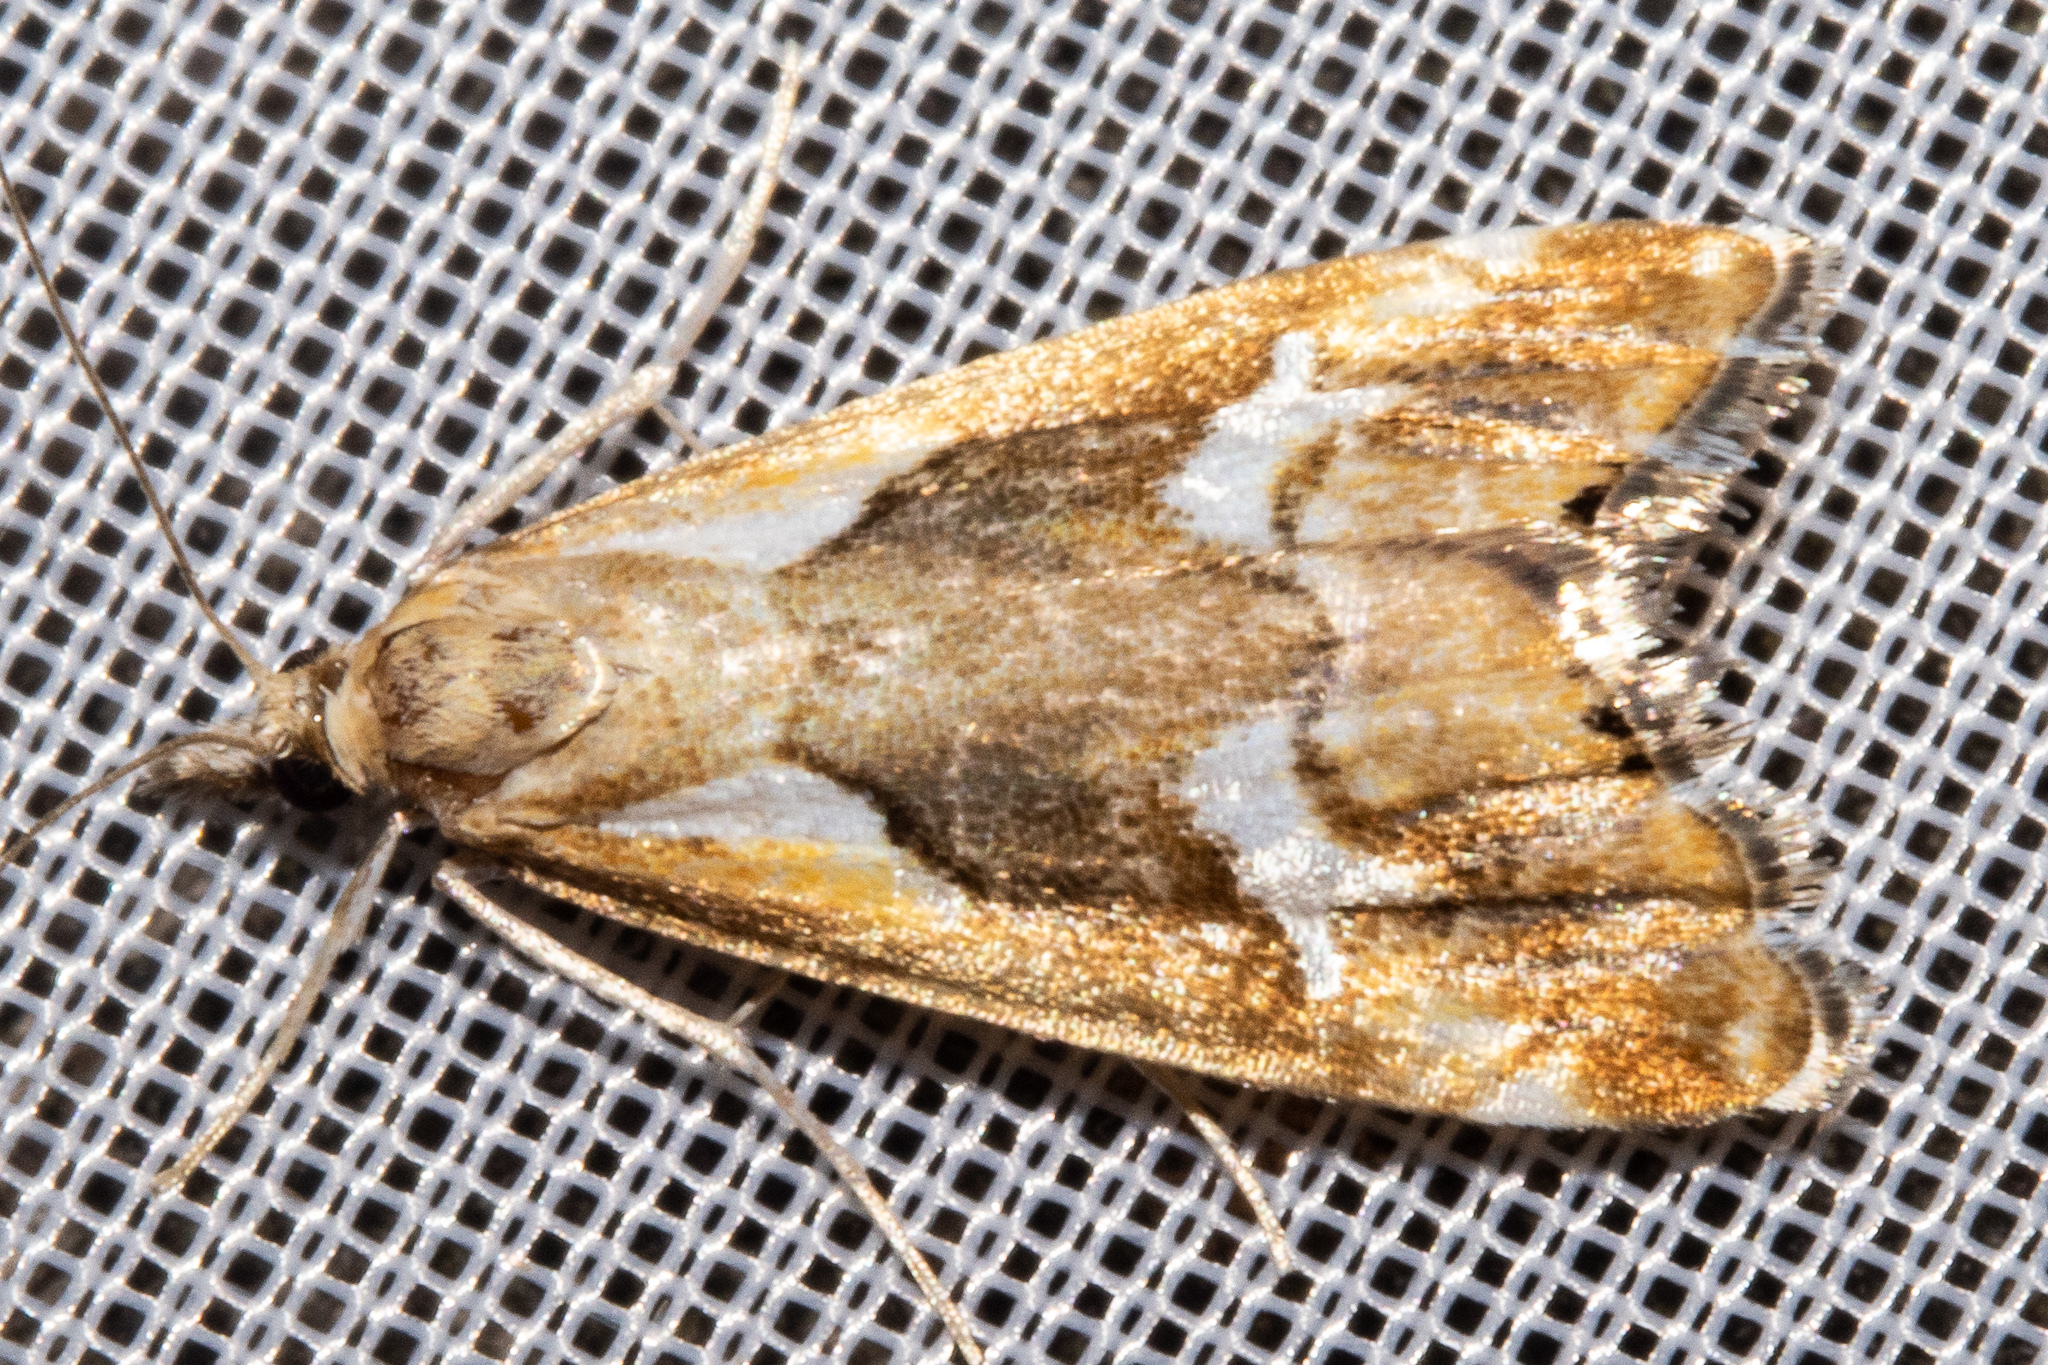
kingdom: Animalia
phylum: Arthropoda
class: Insecta
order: Lepidoptera
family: Crambidae
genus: Glaucocharis
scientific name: Glaucocharis interruptus
